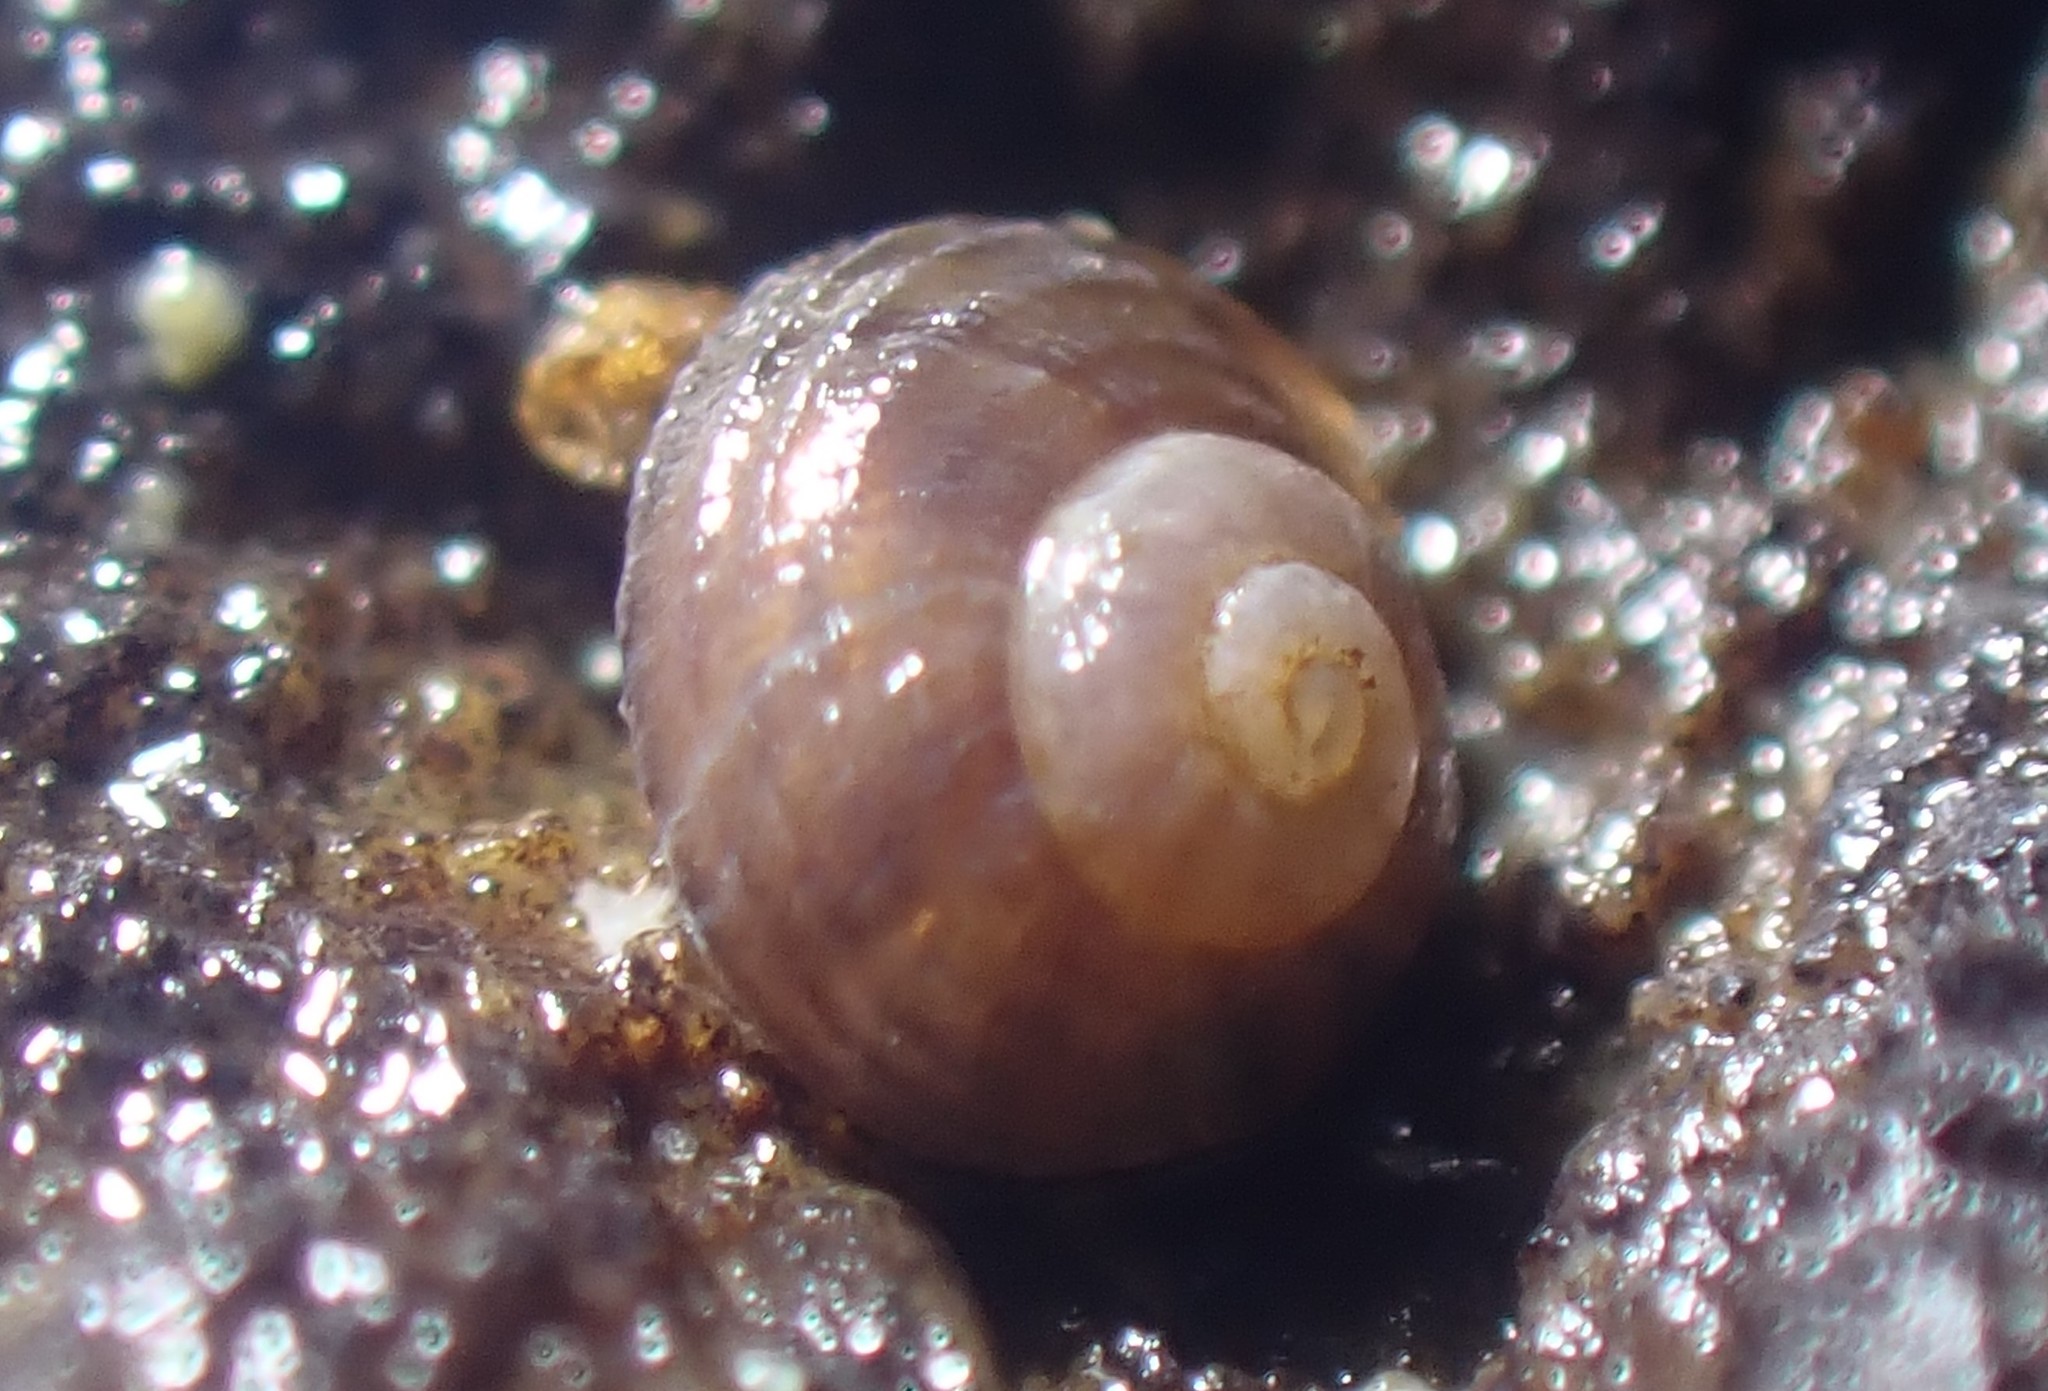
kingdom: Animalia
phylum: Mollusca
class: Gastropoda
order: Littorinimorpha
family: Littorinidae
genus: Risellopsis
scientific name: Risellopsis varia
